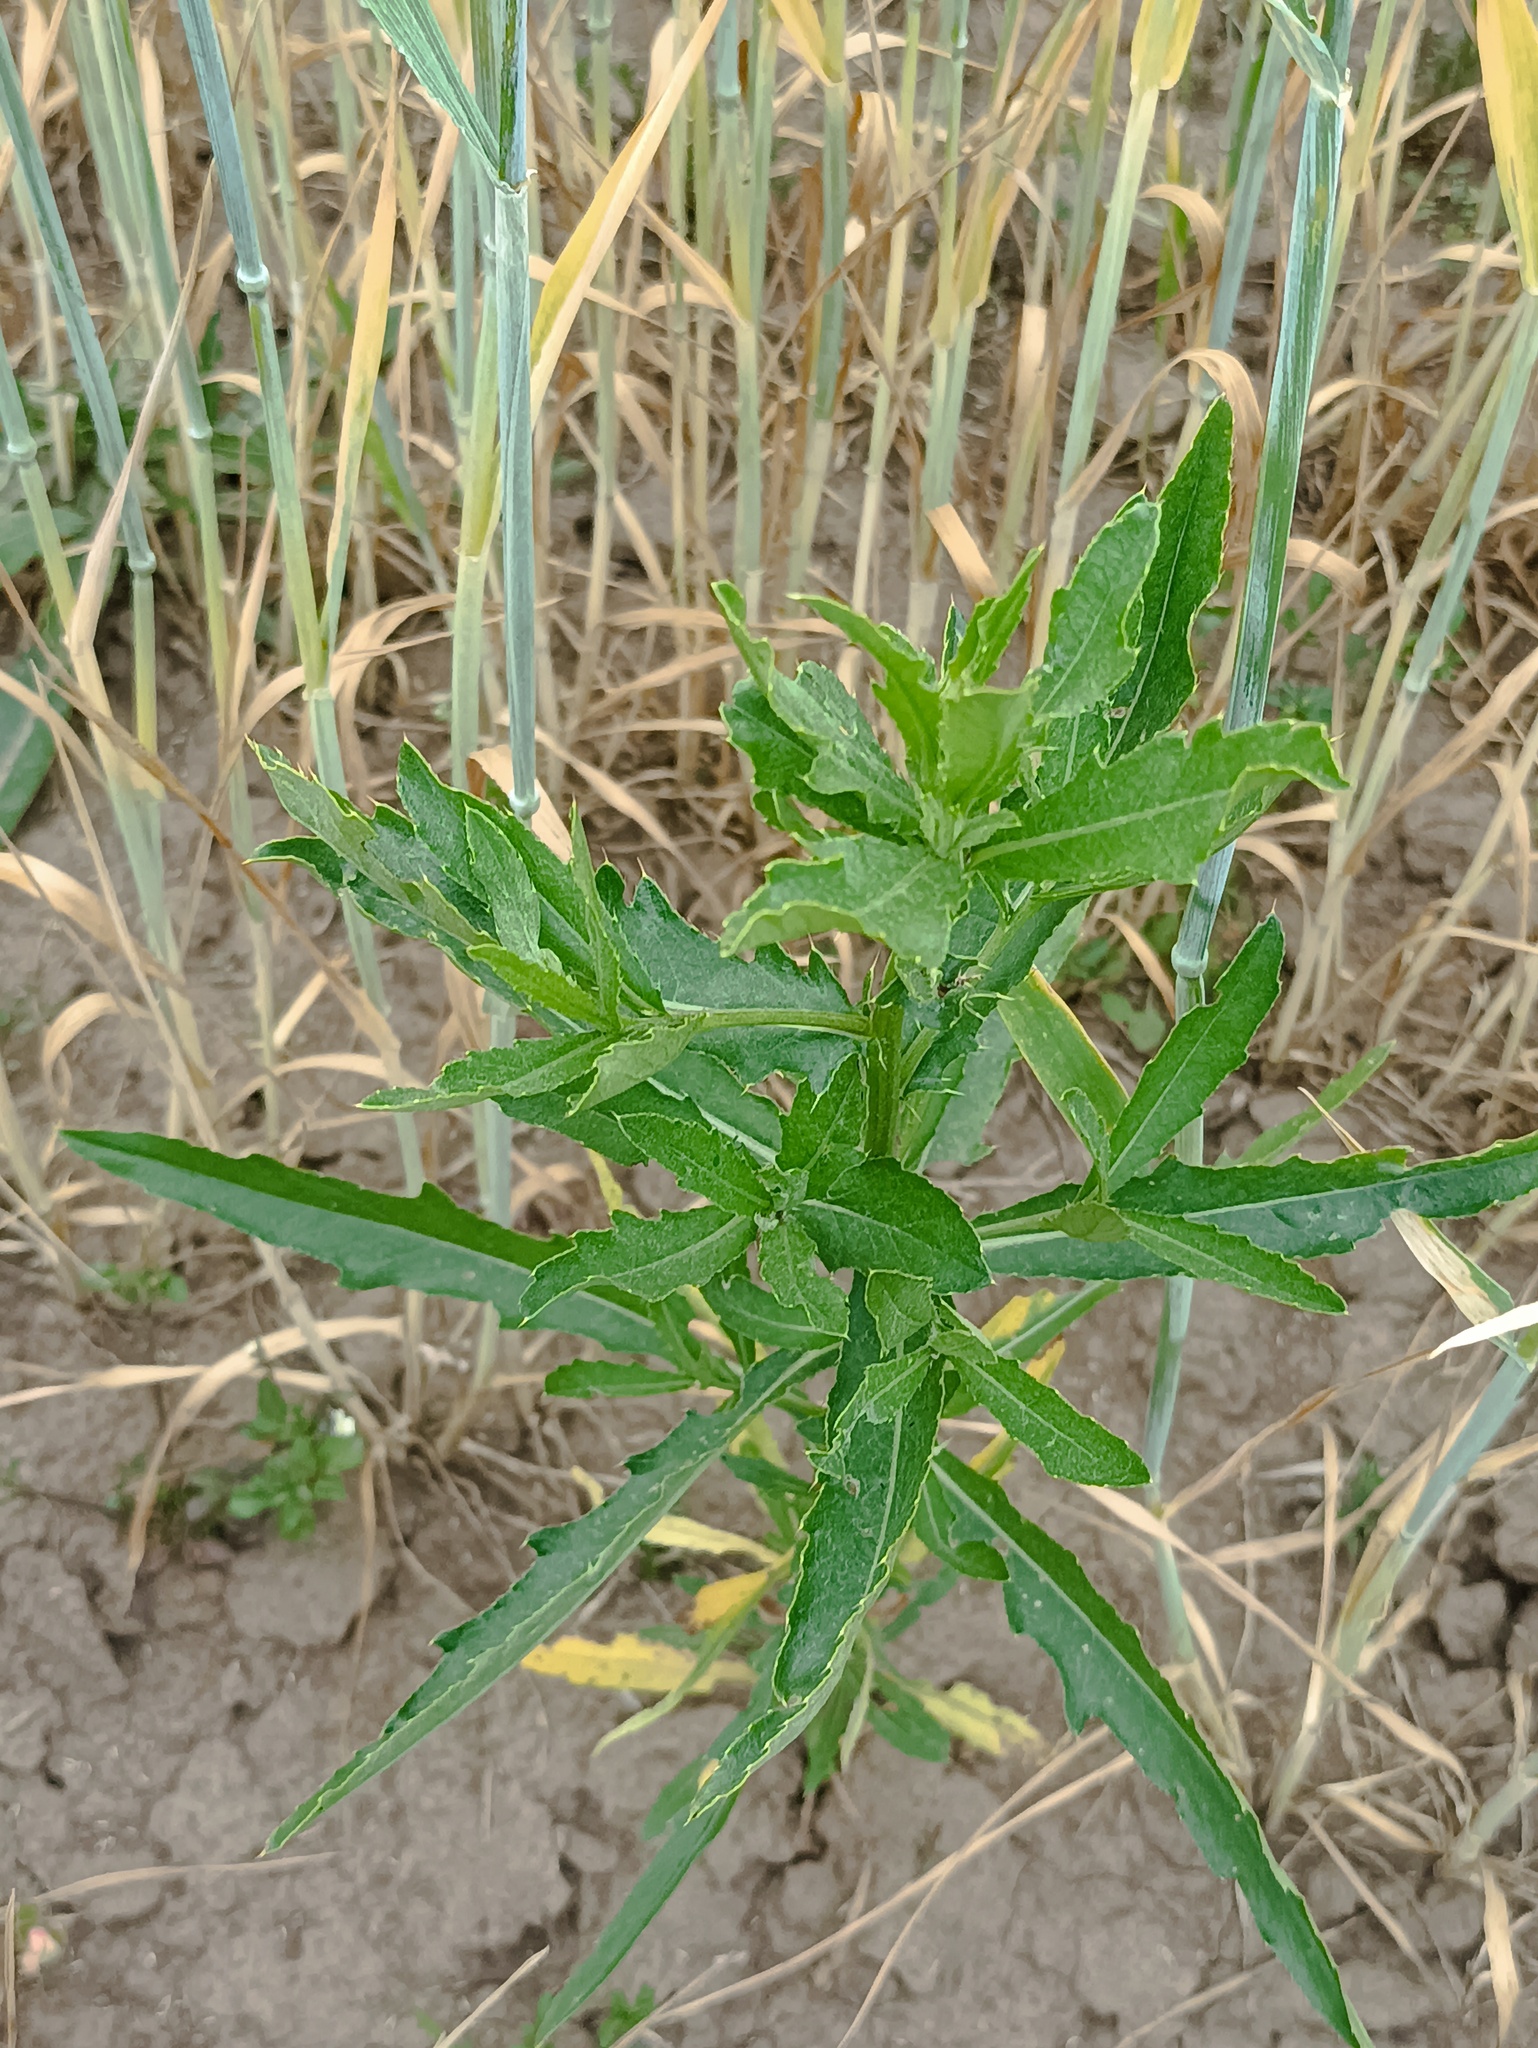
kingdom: Plantae
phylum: Tracheophyta
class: Magnoliopsida
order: Asterales
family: Asteraceae
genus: Cirsium
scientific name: Cirsium arvense
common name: Creeping thistle
